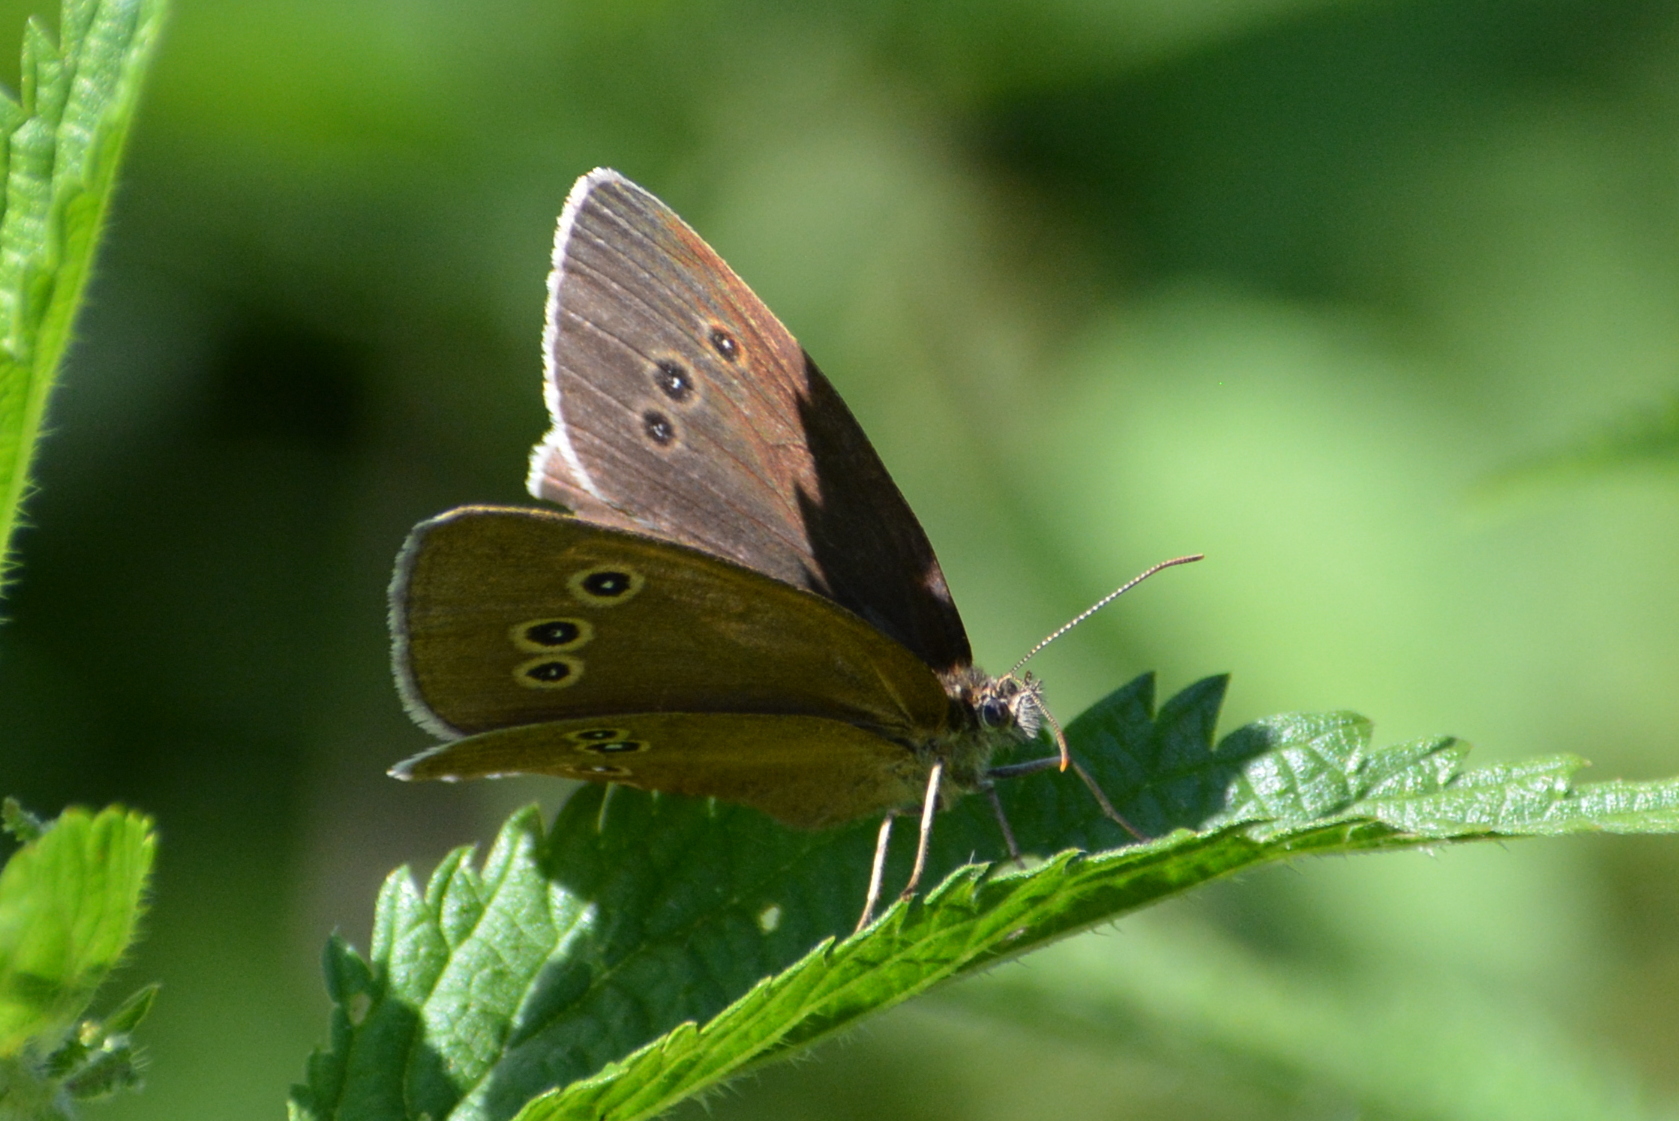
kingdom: Animalia
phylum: Arthropoda
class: Insecta
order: Lepidoptera
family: Nymphalidae
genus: Aphantopus
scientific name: Aphantopus hyperantus
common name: Ringlet
